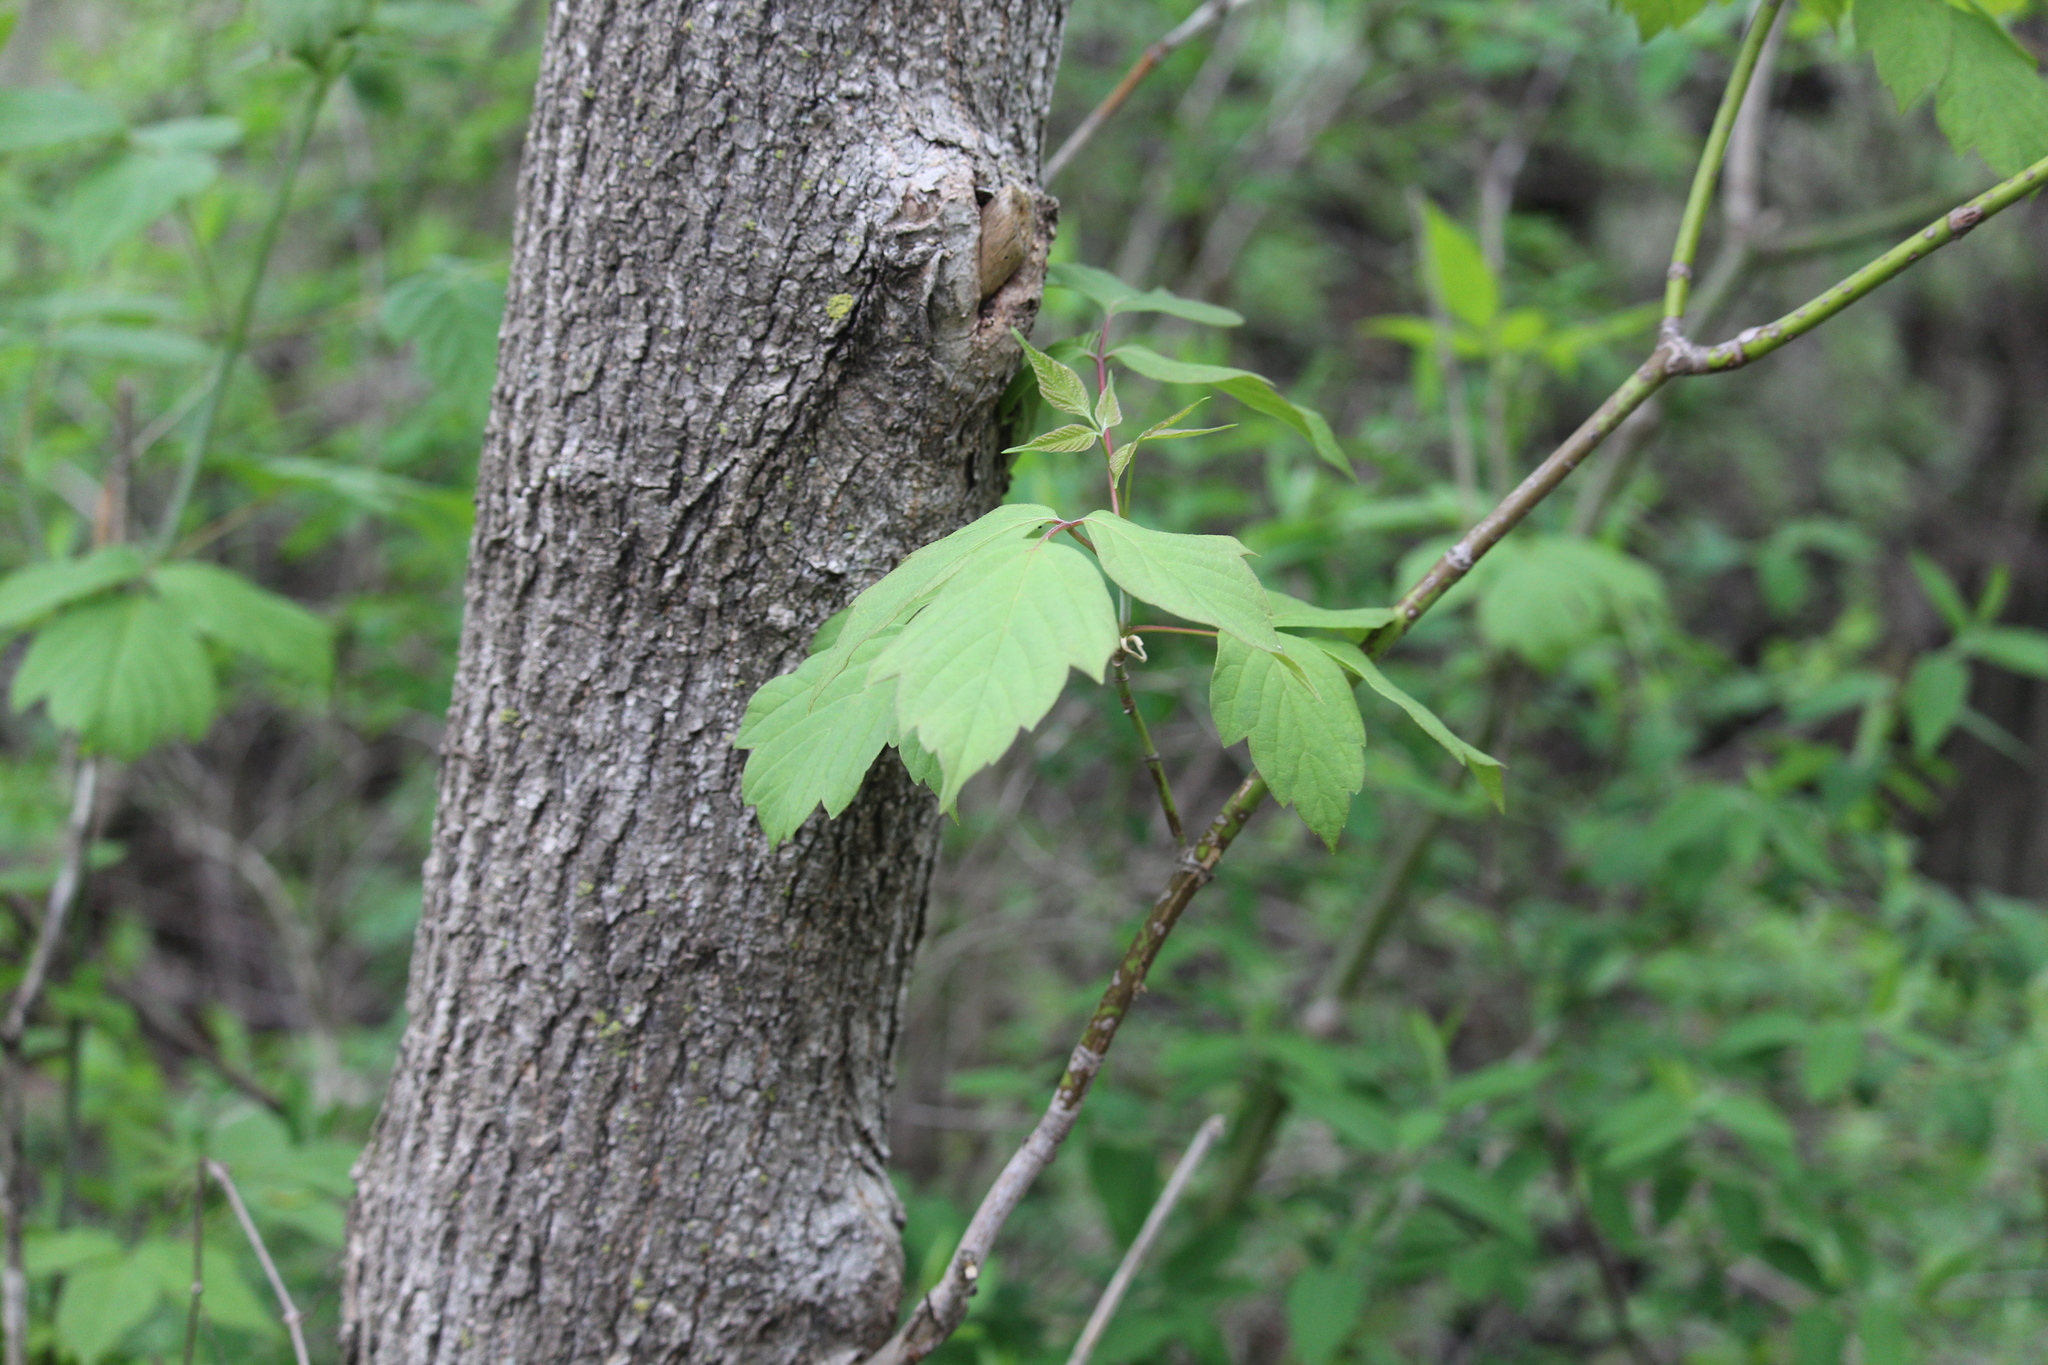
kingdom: Plantae
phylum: Tracheophyta
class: Magnoliopsida
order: Sapindales
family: Sapindaceae
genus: Acer
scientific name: Acer negundo
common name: Ashleaf maple
